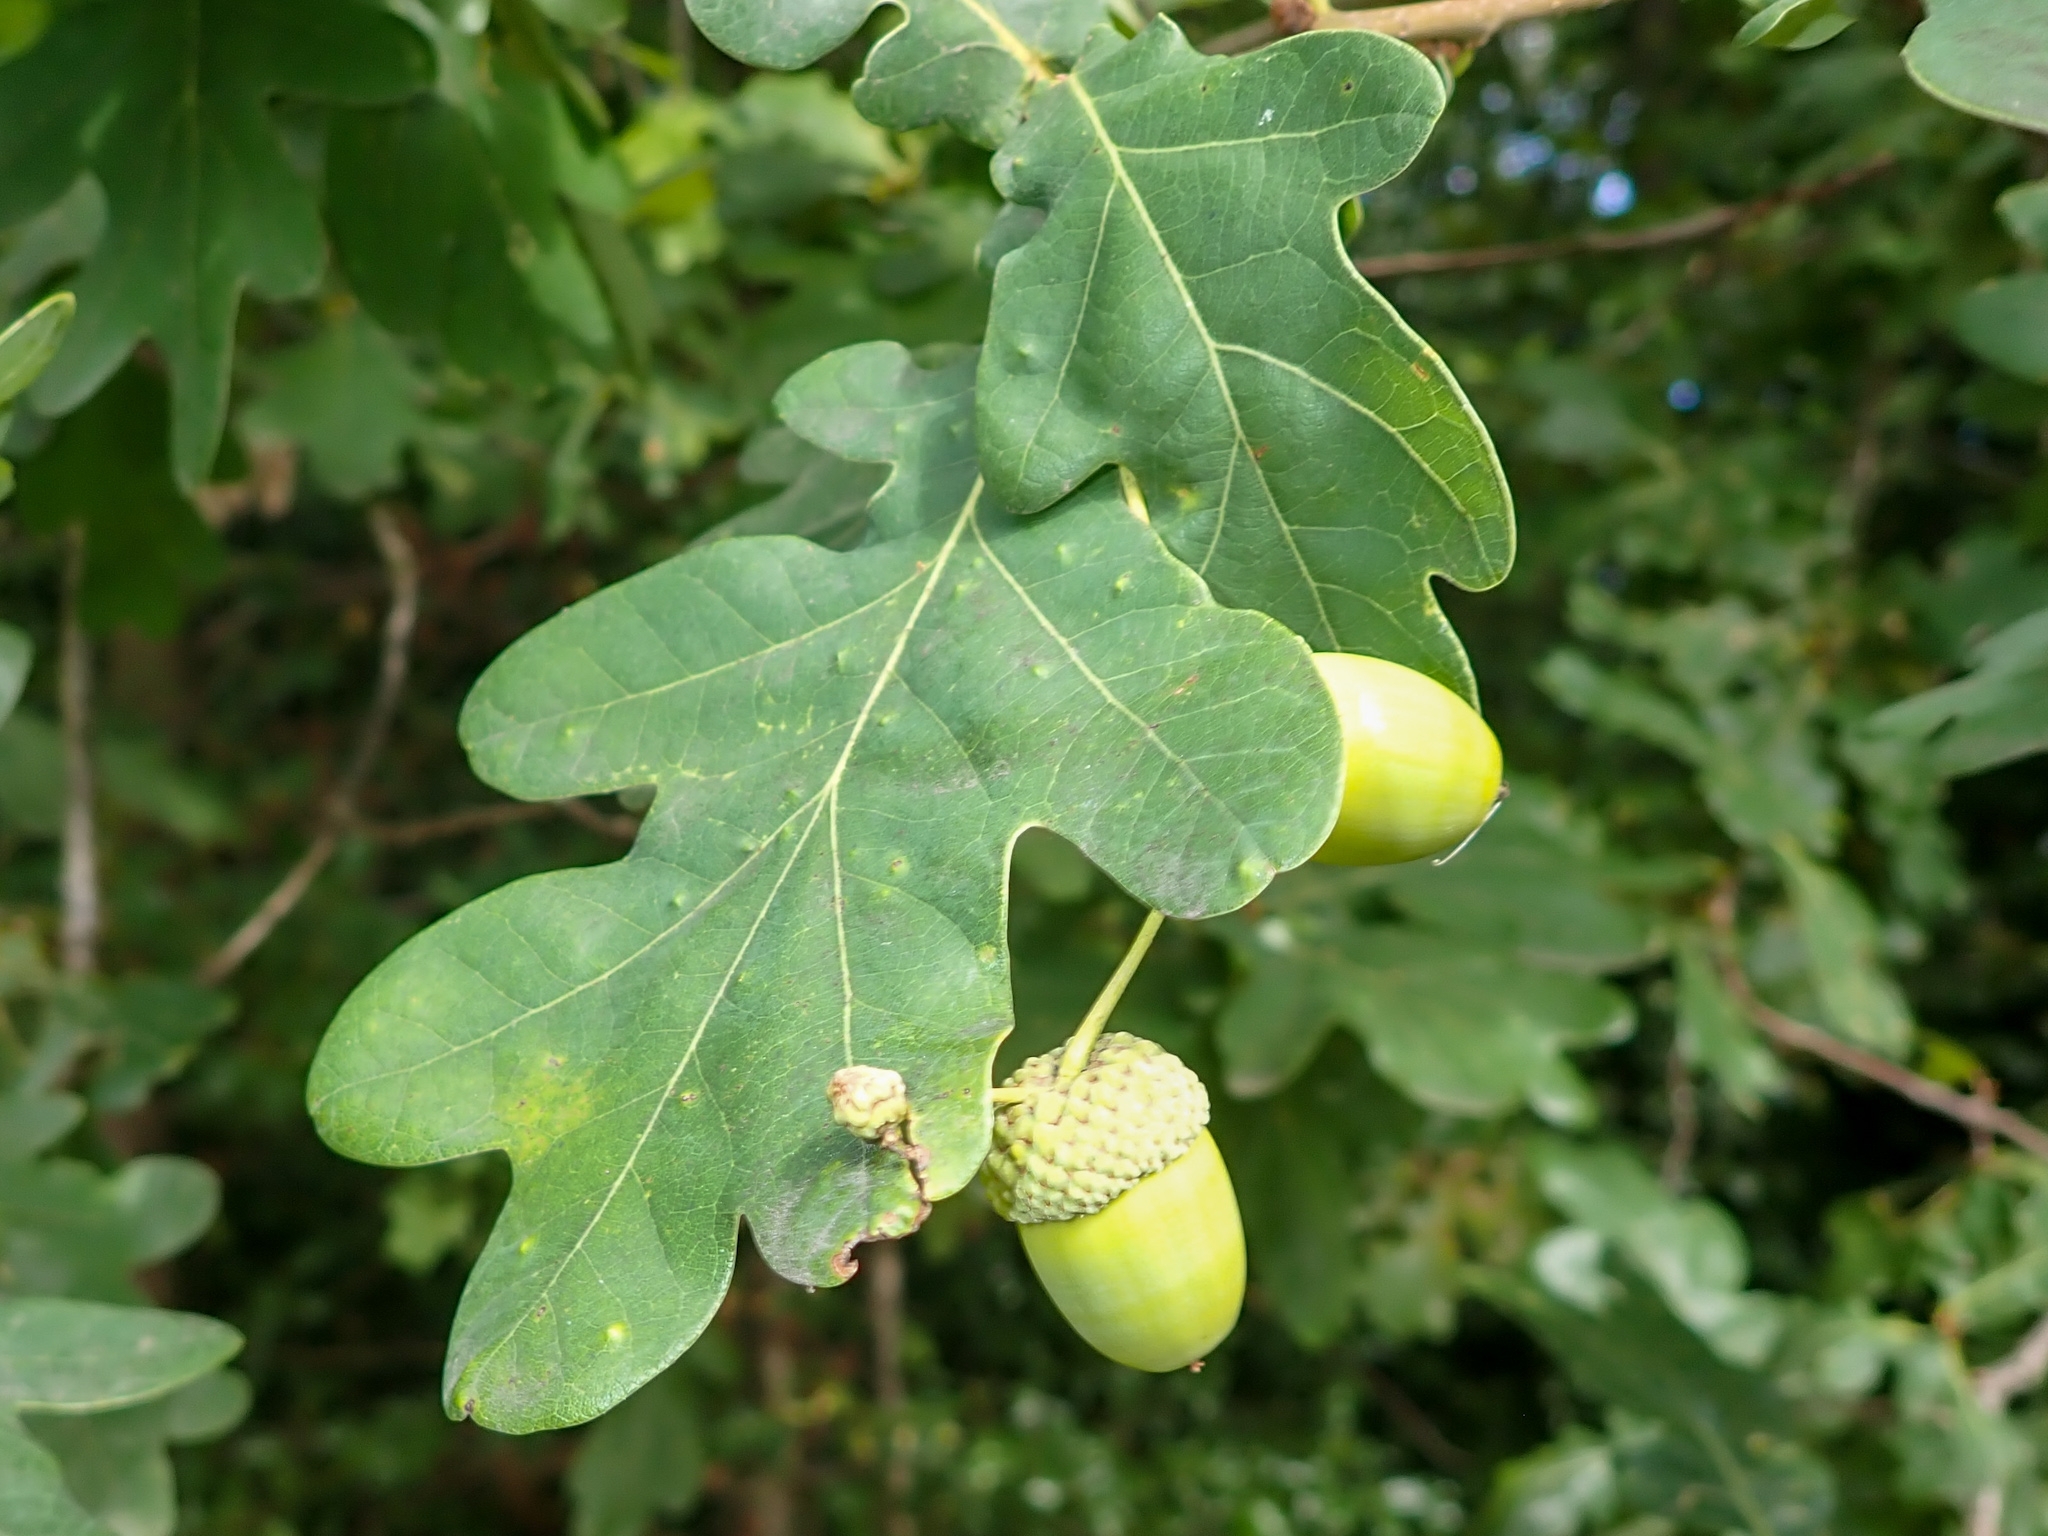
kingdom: Plantae
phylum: Tracheophyta
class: Magnoliopsida
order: Fagales
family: Fagaceae
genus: Quercus
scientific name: Quercus robur
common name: Pedunculate oak
